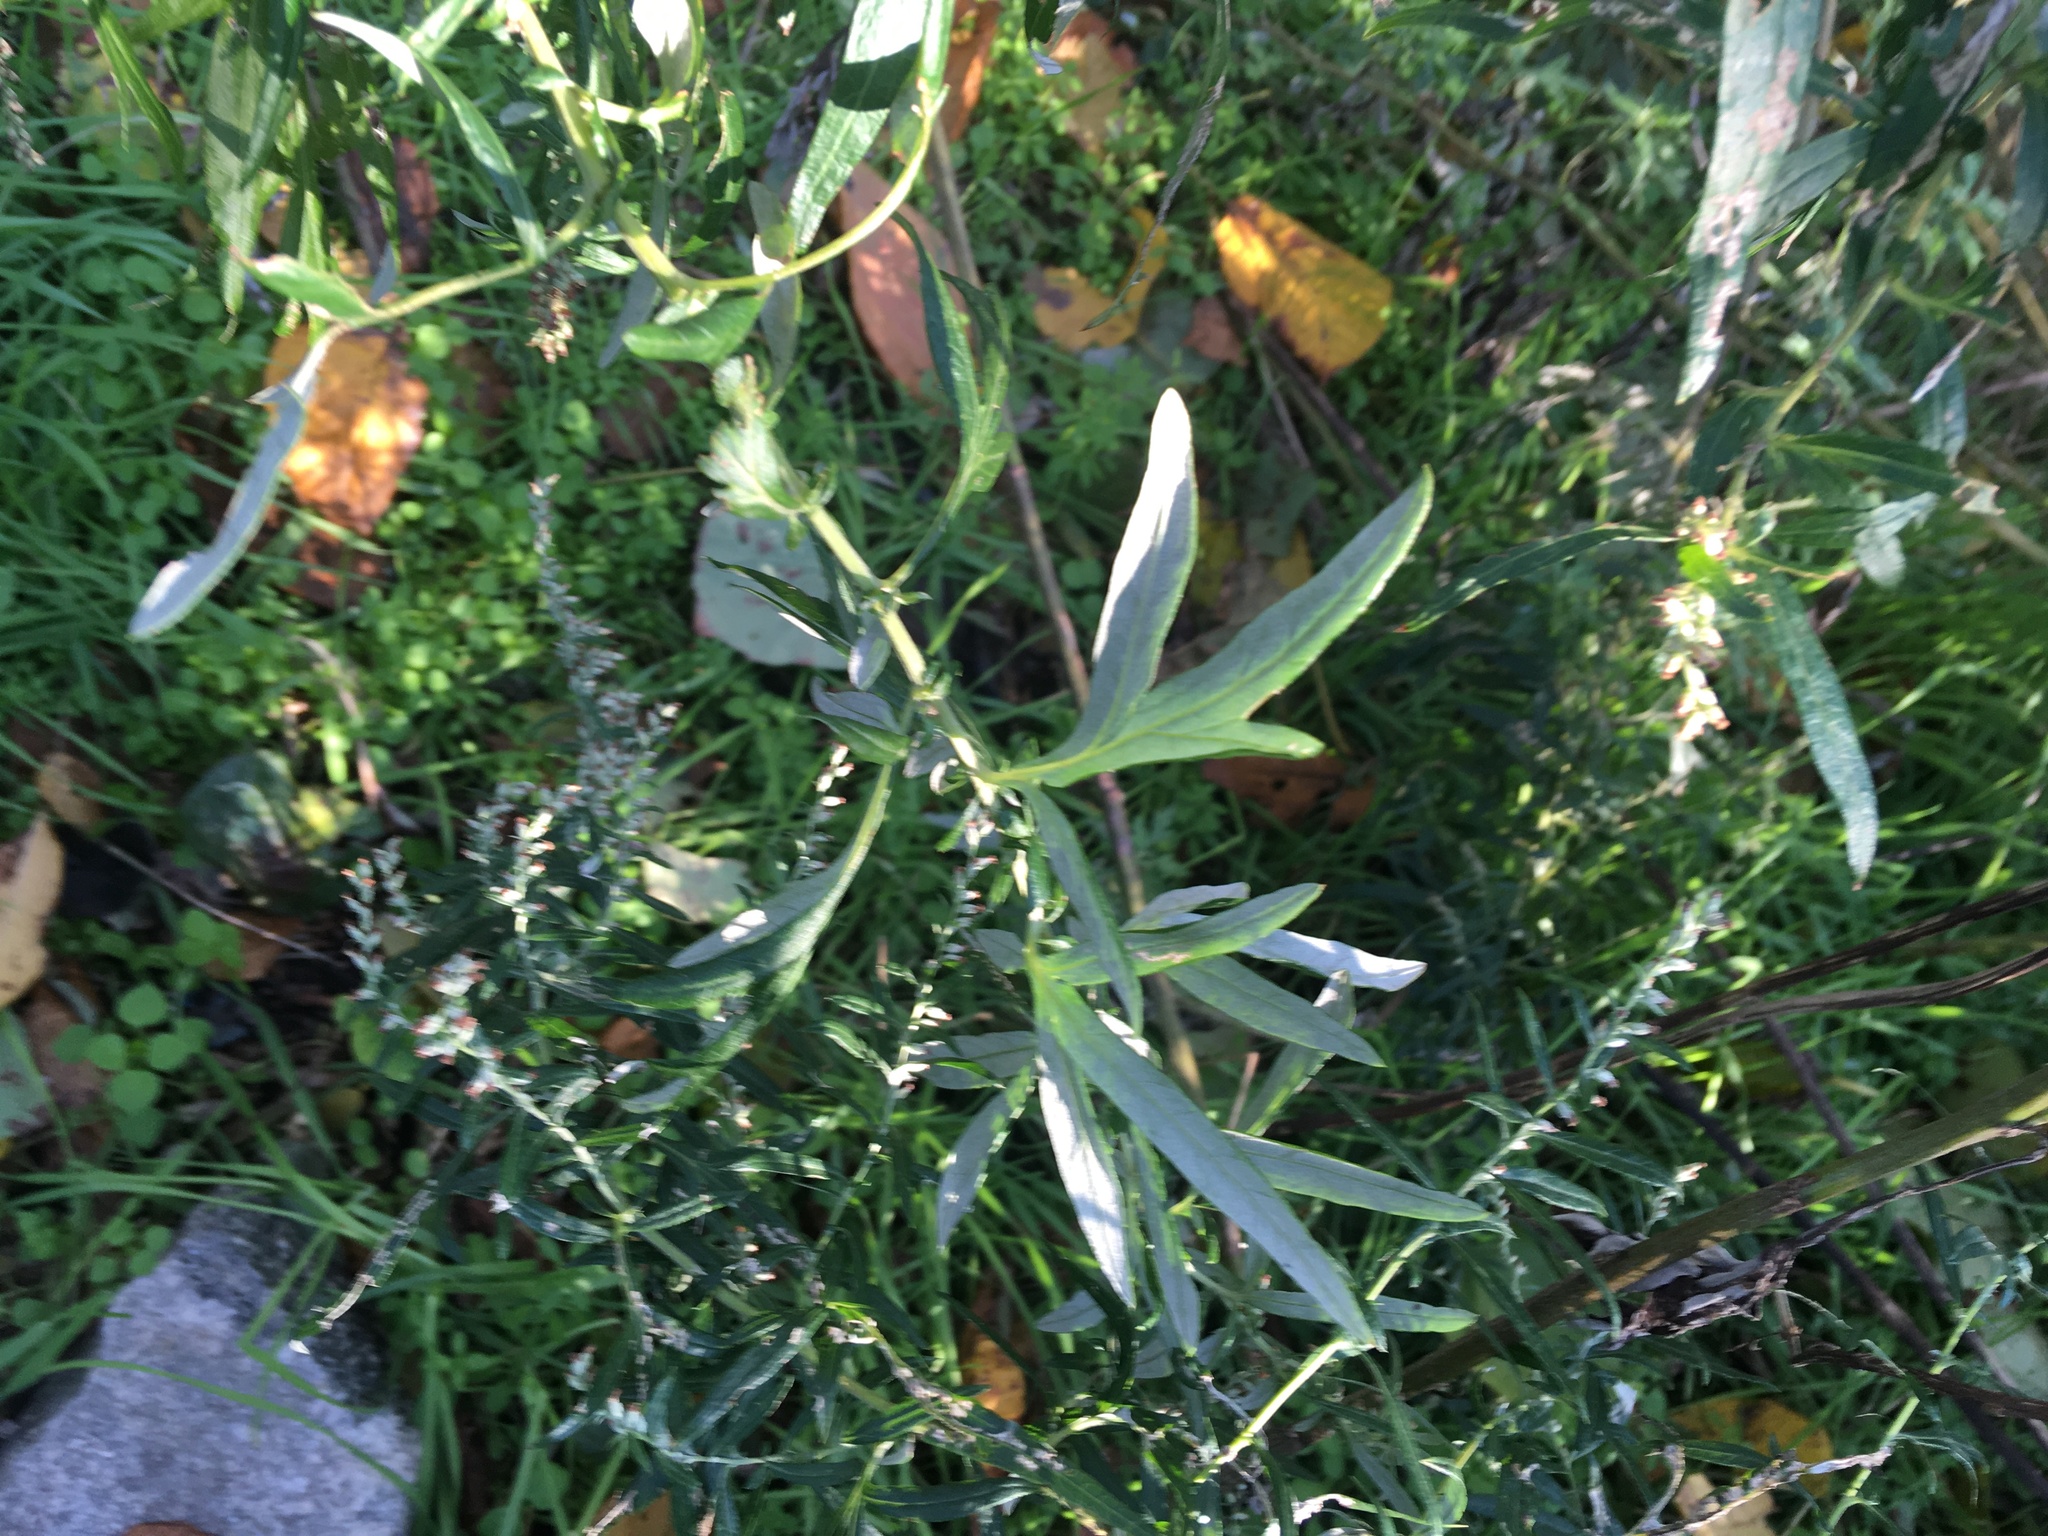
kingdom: Plantae
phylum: Tracheophyta
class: Magnoliopsida
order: Asterales
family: Asteraceae
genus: Artemisia
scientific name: Artemisia vulgaris
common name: Mugwort
